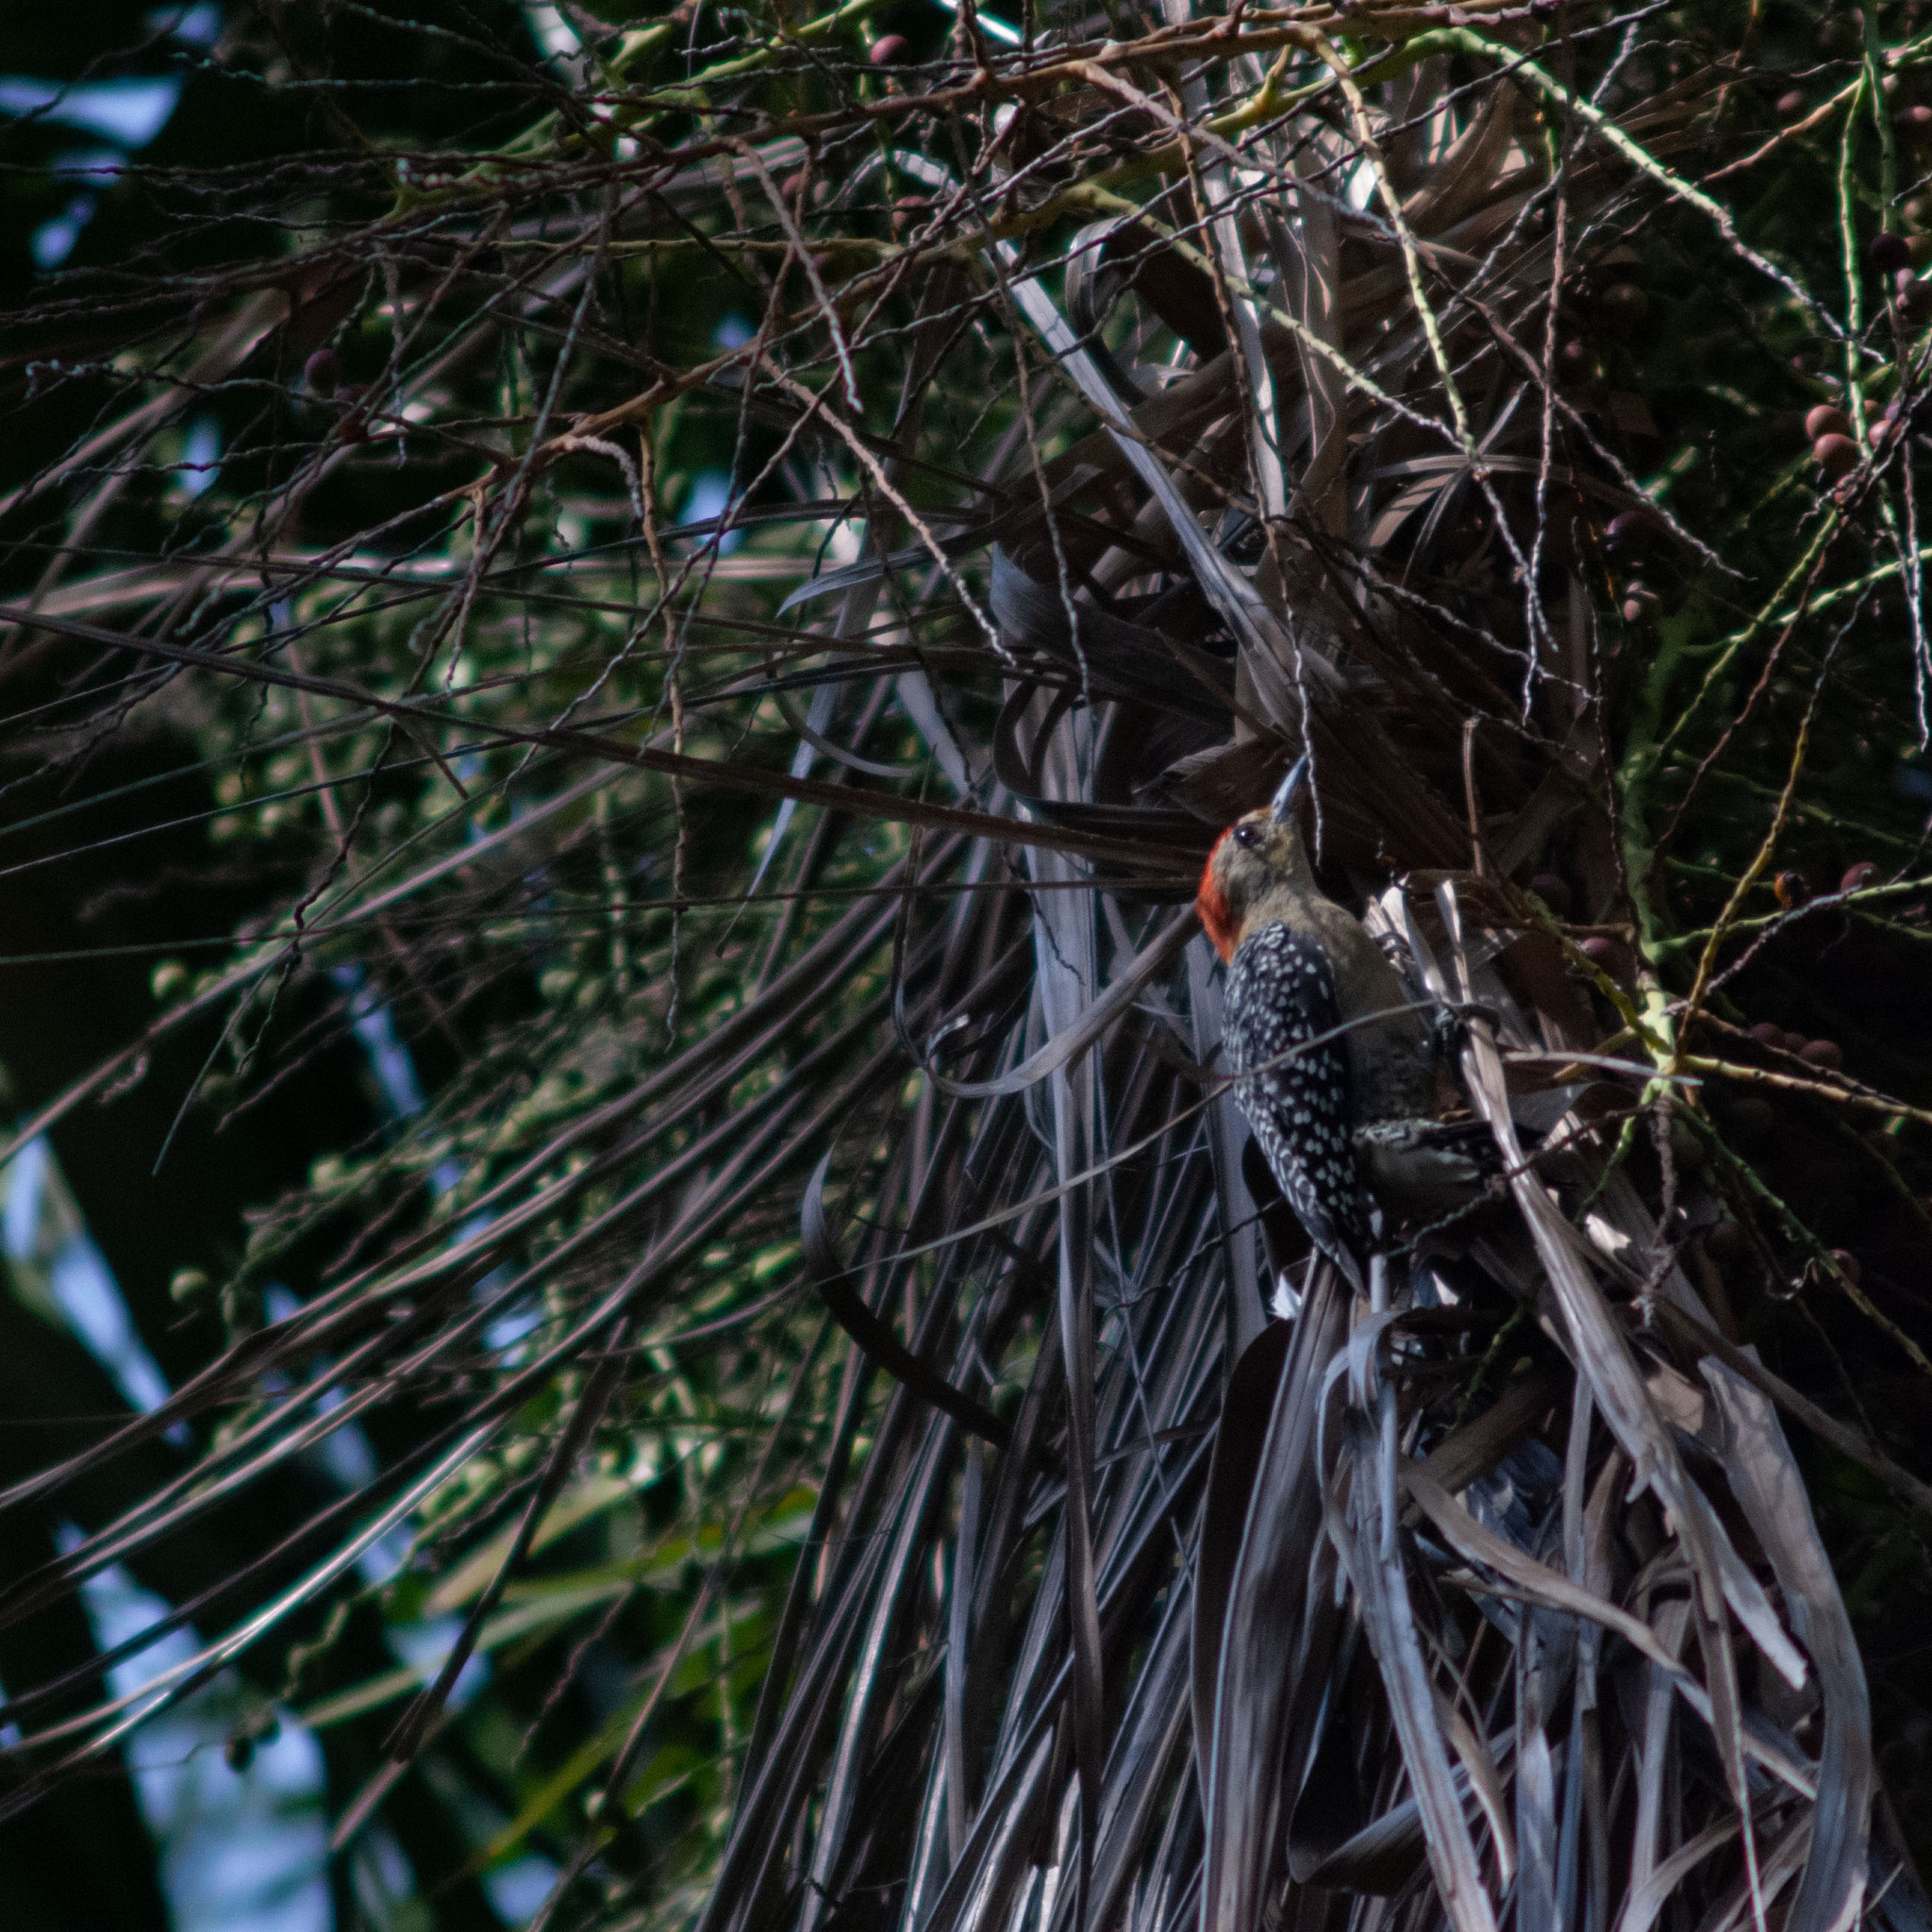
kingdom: Animalia
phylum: Chordata
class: Aves
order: Piciformes
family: Picidae
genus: Melanerpes
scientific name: Melanerpes rubricapillus
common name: Red-crowned woodpecker
